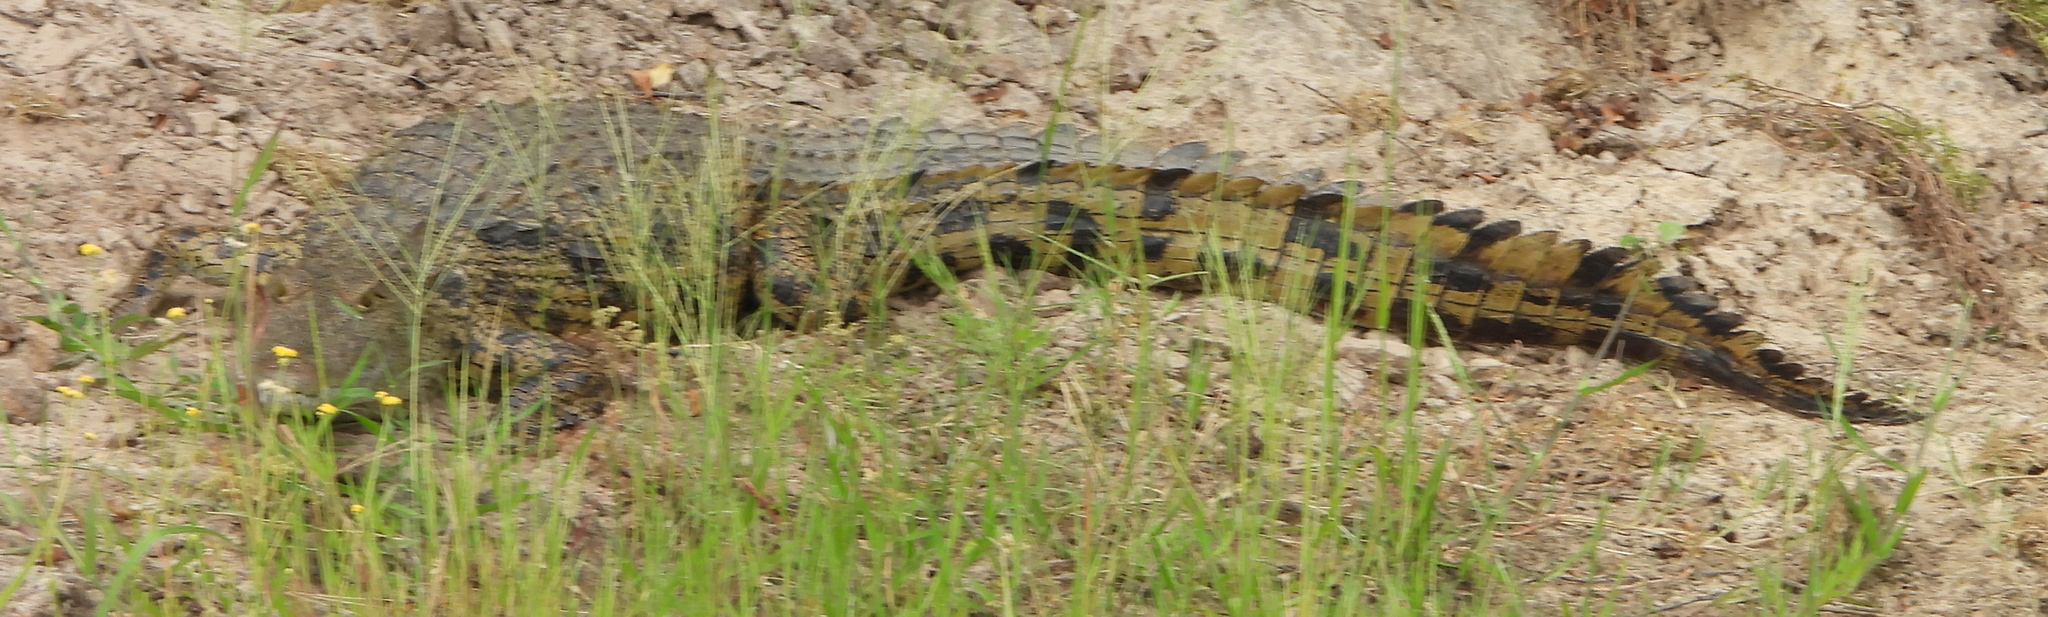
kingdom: Animalia
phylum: Chordata
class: Crocodylia
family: Crocodylidae
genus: Crocodylus
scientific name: Crocodylus niloticus
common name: Nile crocodile
